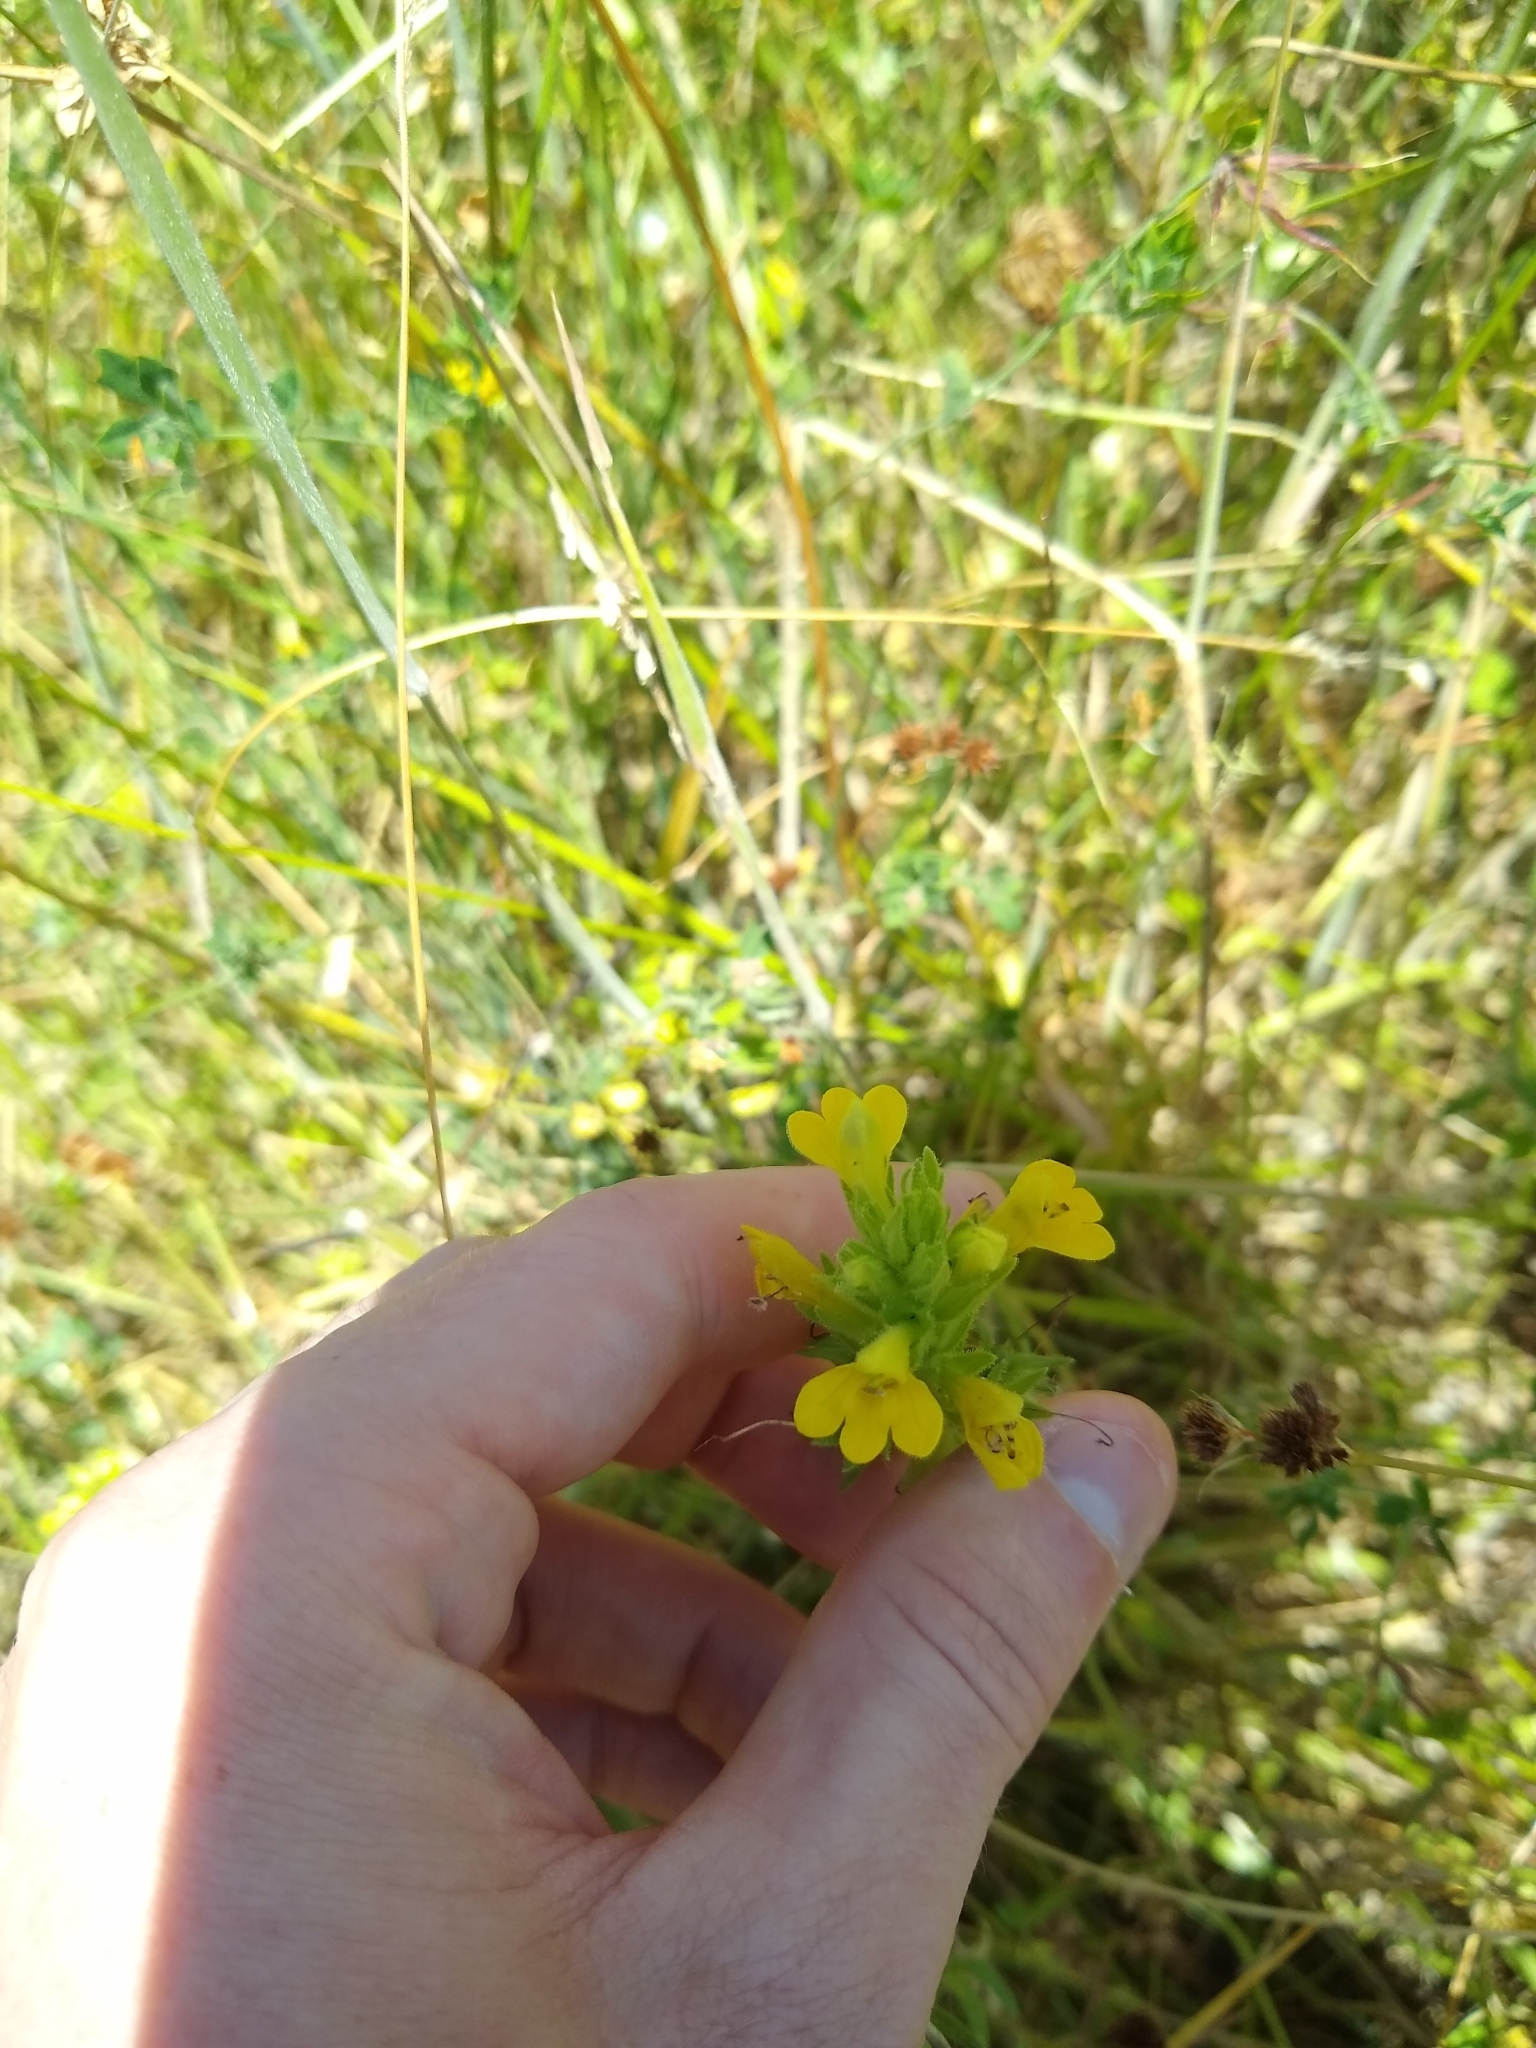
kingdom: Plantae
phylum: Tracheophyta
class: Magnoliopsida
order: Lamiales
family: Orobanchaceae
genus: Bellardia
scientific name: Bellardia viscosa
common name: Sticky parentucellia
